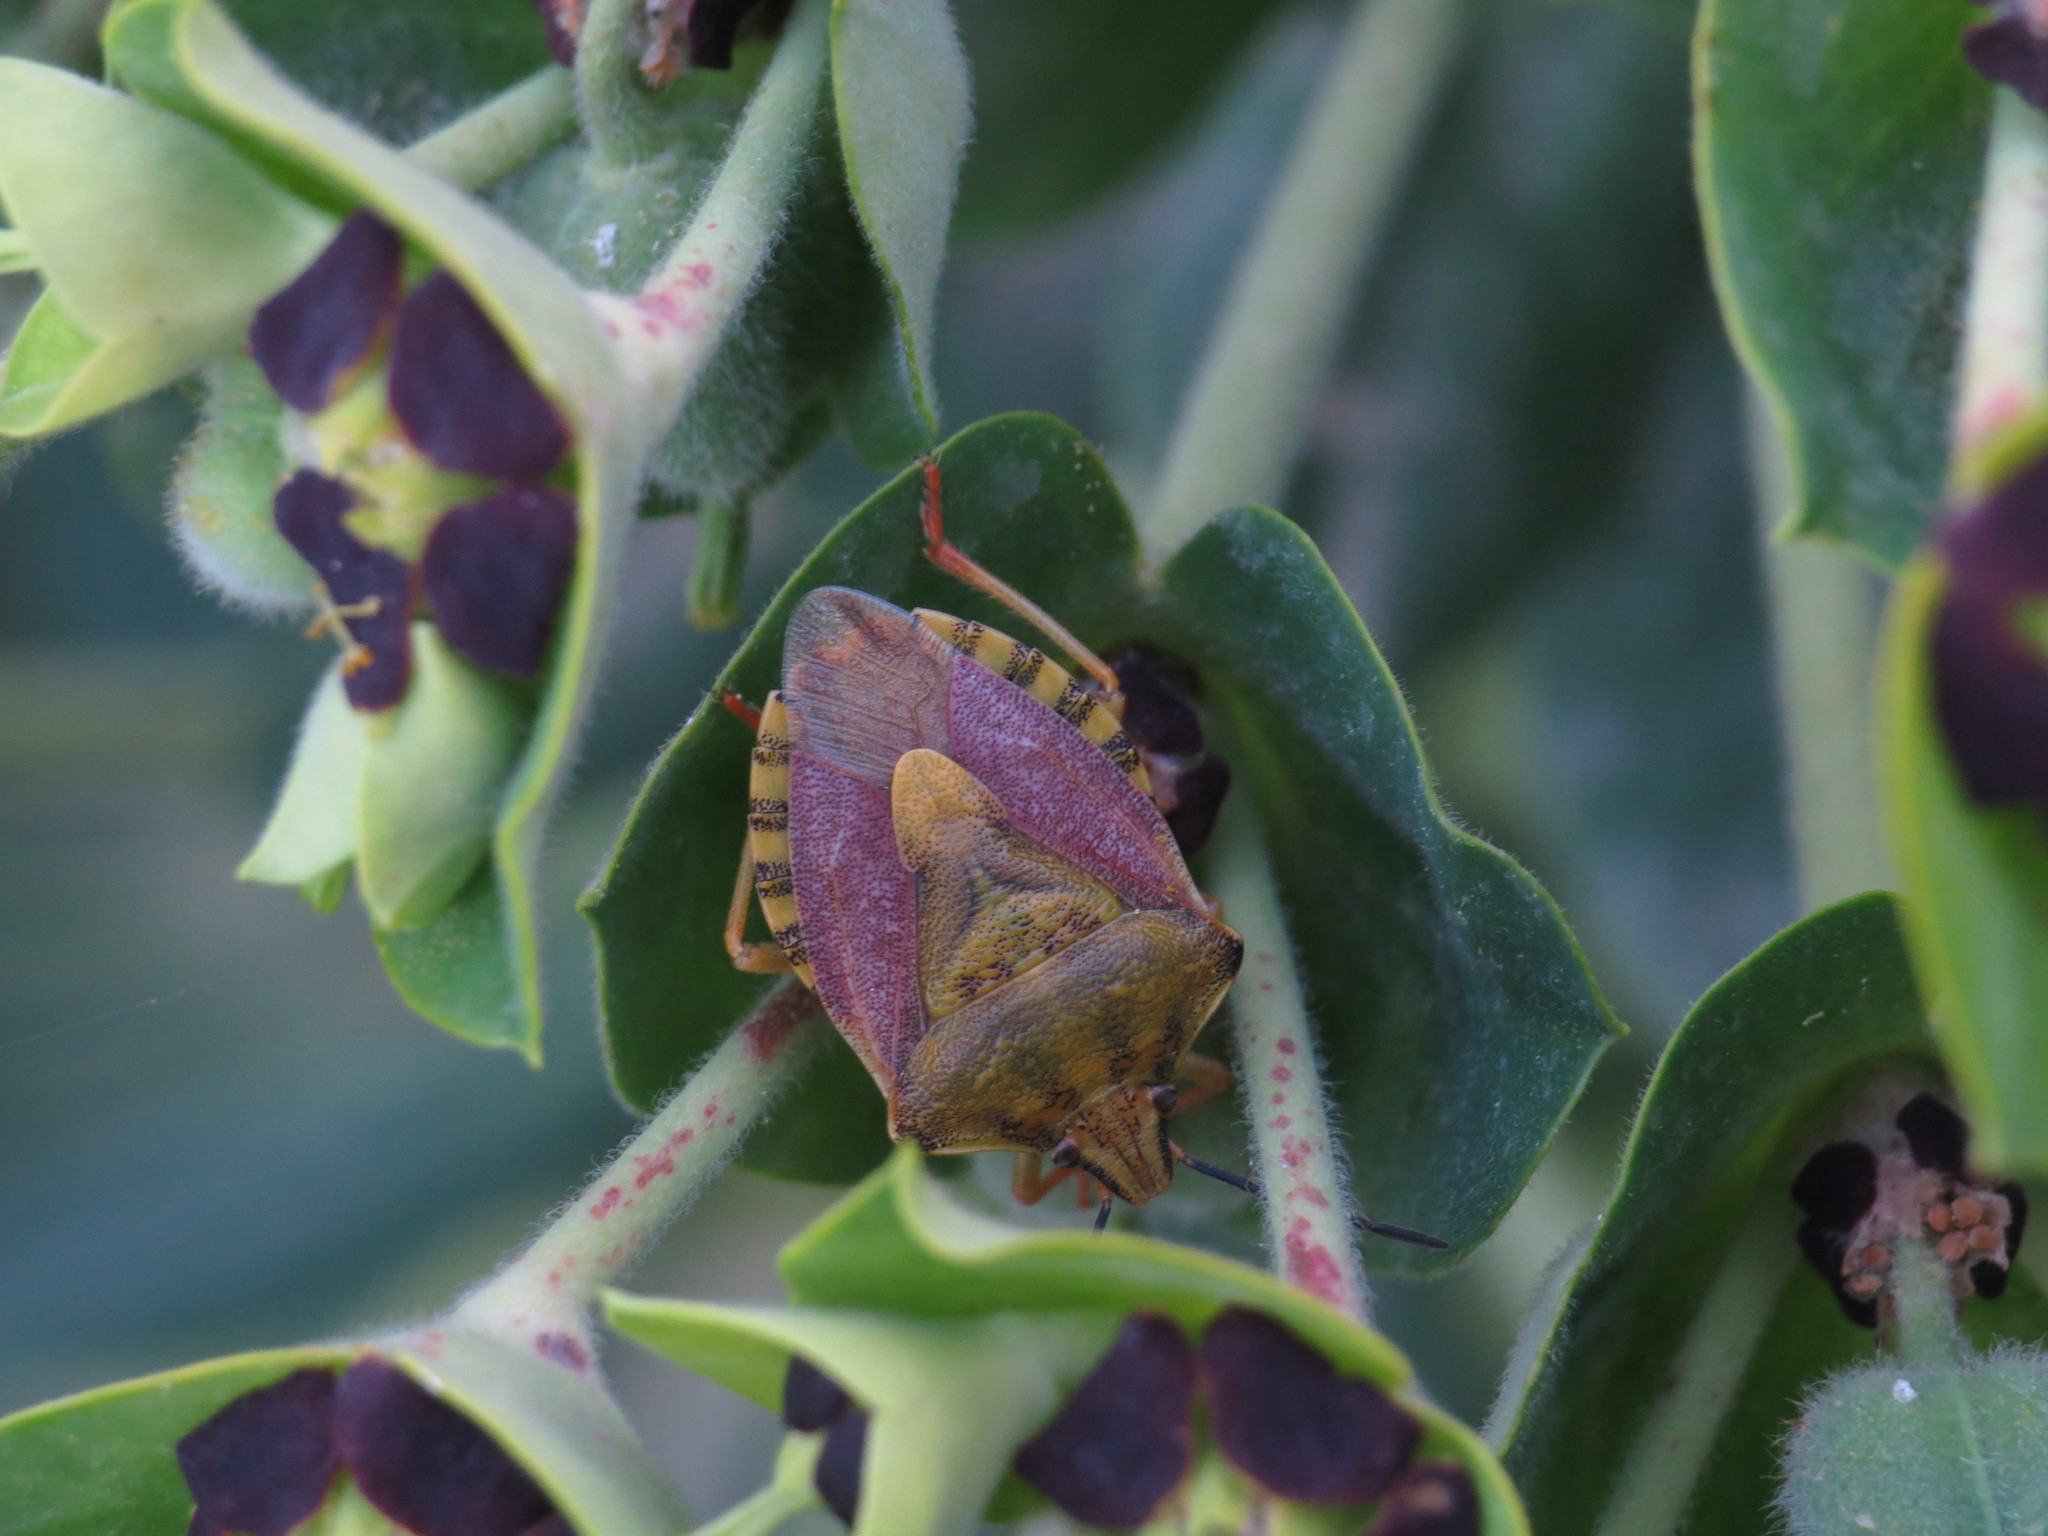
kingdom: Animalia
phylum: Arthropoda
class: Insecta
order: Hemiptera
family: Pentatomidae
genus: Carpocoris
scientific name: Carpocoris purpureipennis
